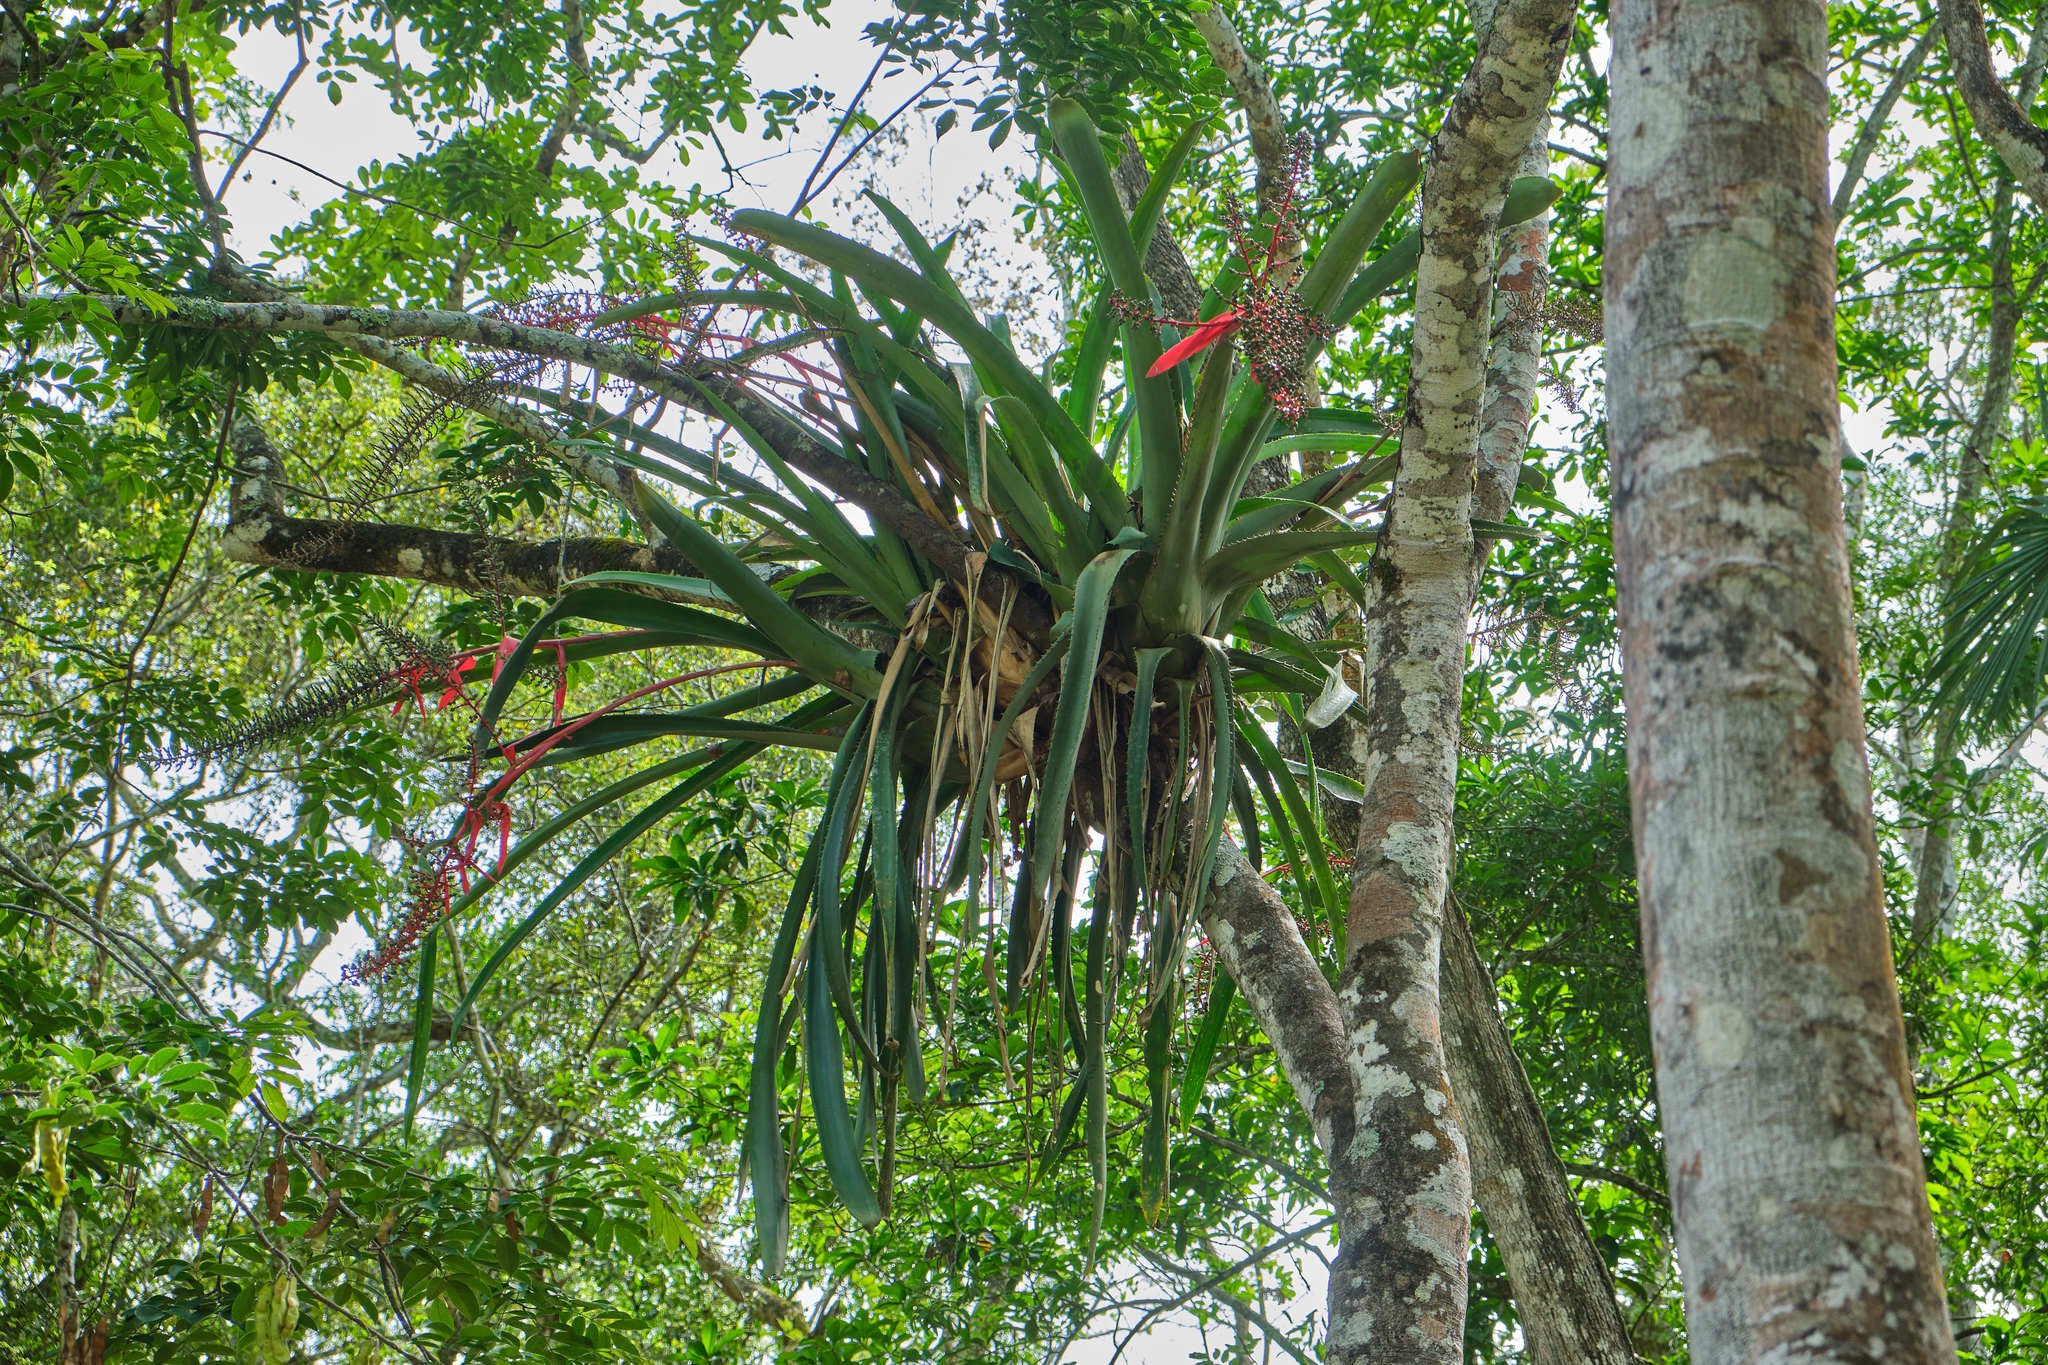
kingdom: Plantae
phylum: Tracheophyta
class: Liliopsida
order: Poales
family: Bromeliaceae
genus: Aechmea
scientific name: Aechmea bracteata
